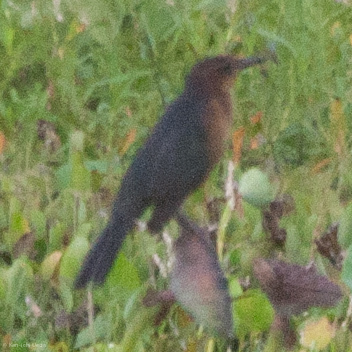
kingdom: Animalia
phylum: Chordata
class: Aves
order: Passeriformes
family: Icteridae
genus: Quiscalus
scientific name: Quiscalus major
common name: Boat-tailed grackle
